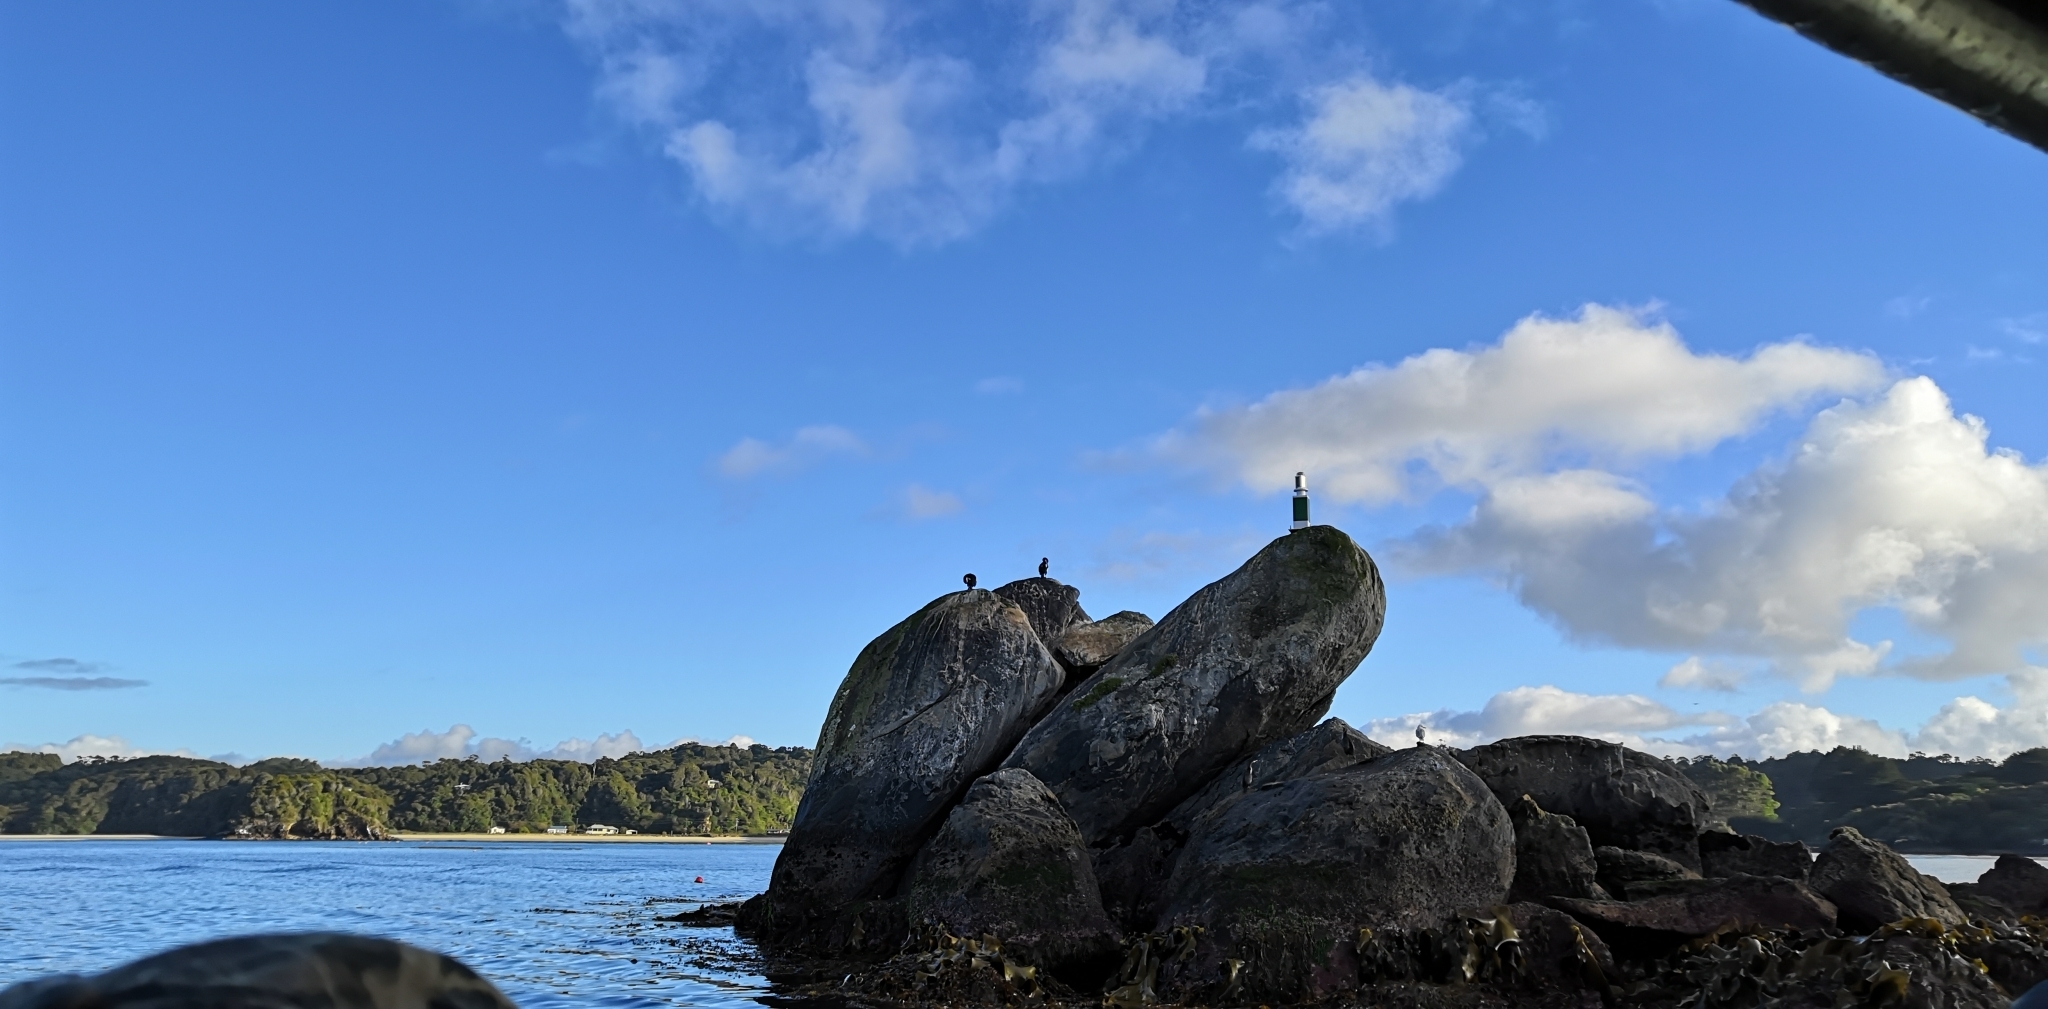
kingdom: Animalia
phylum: Chordata
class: Aves
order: Suliformes
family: Phalacrocoracidae
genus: Leucocarbo
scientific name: Leucocarbo chalconotus
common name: Stewart shag
